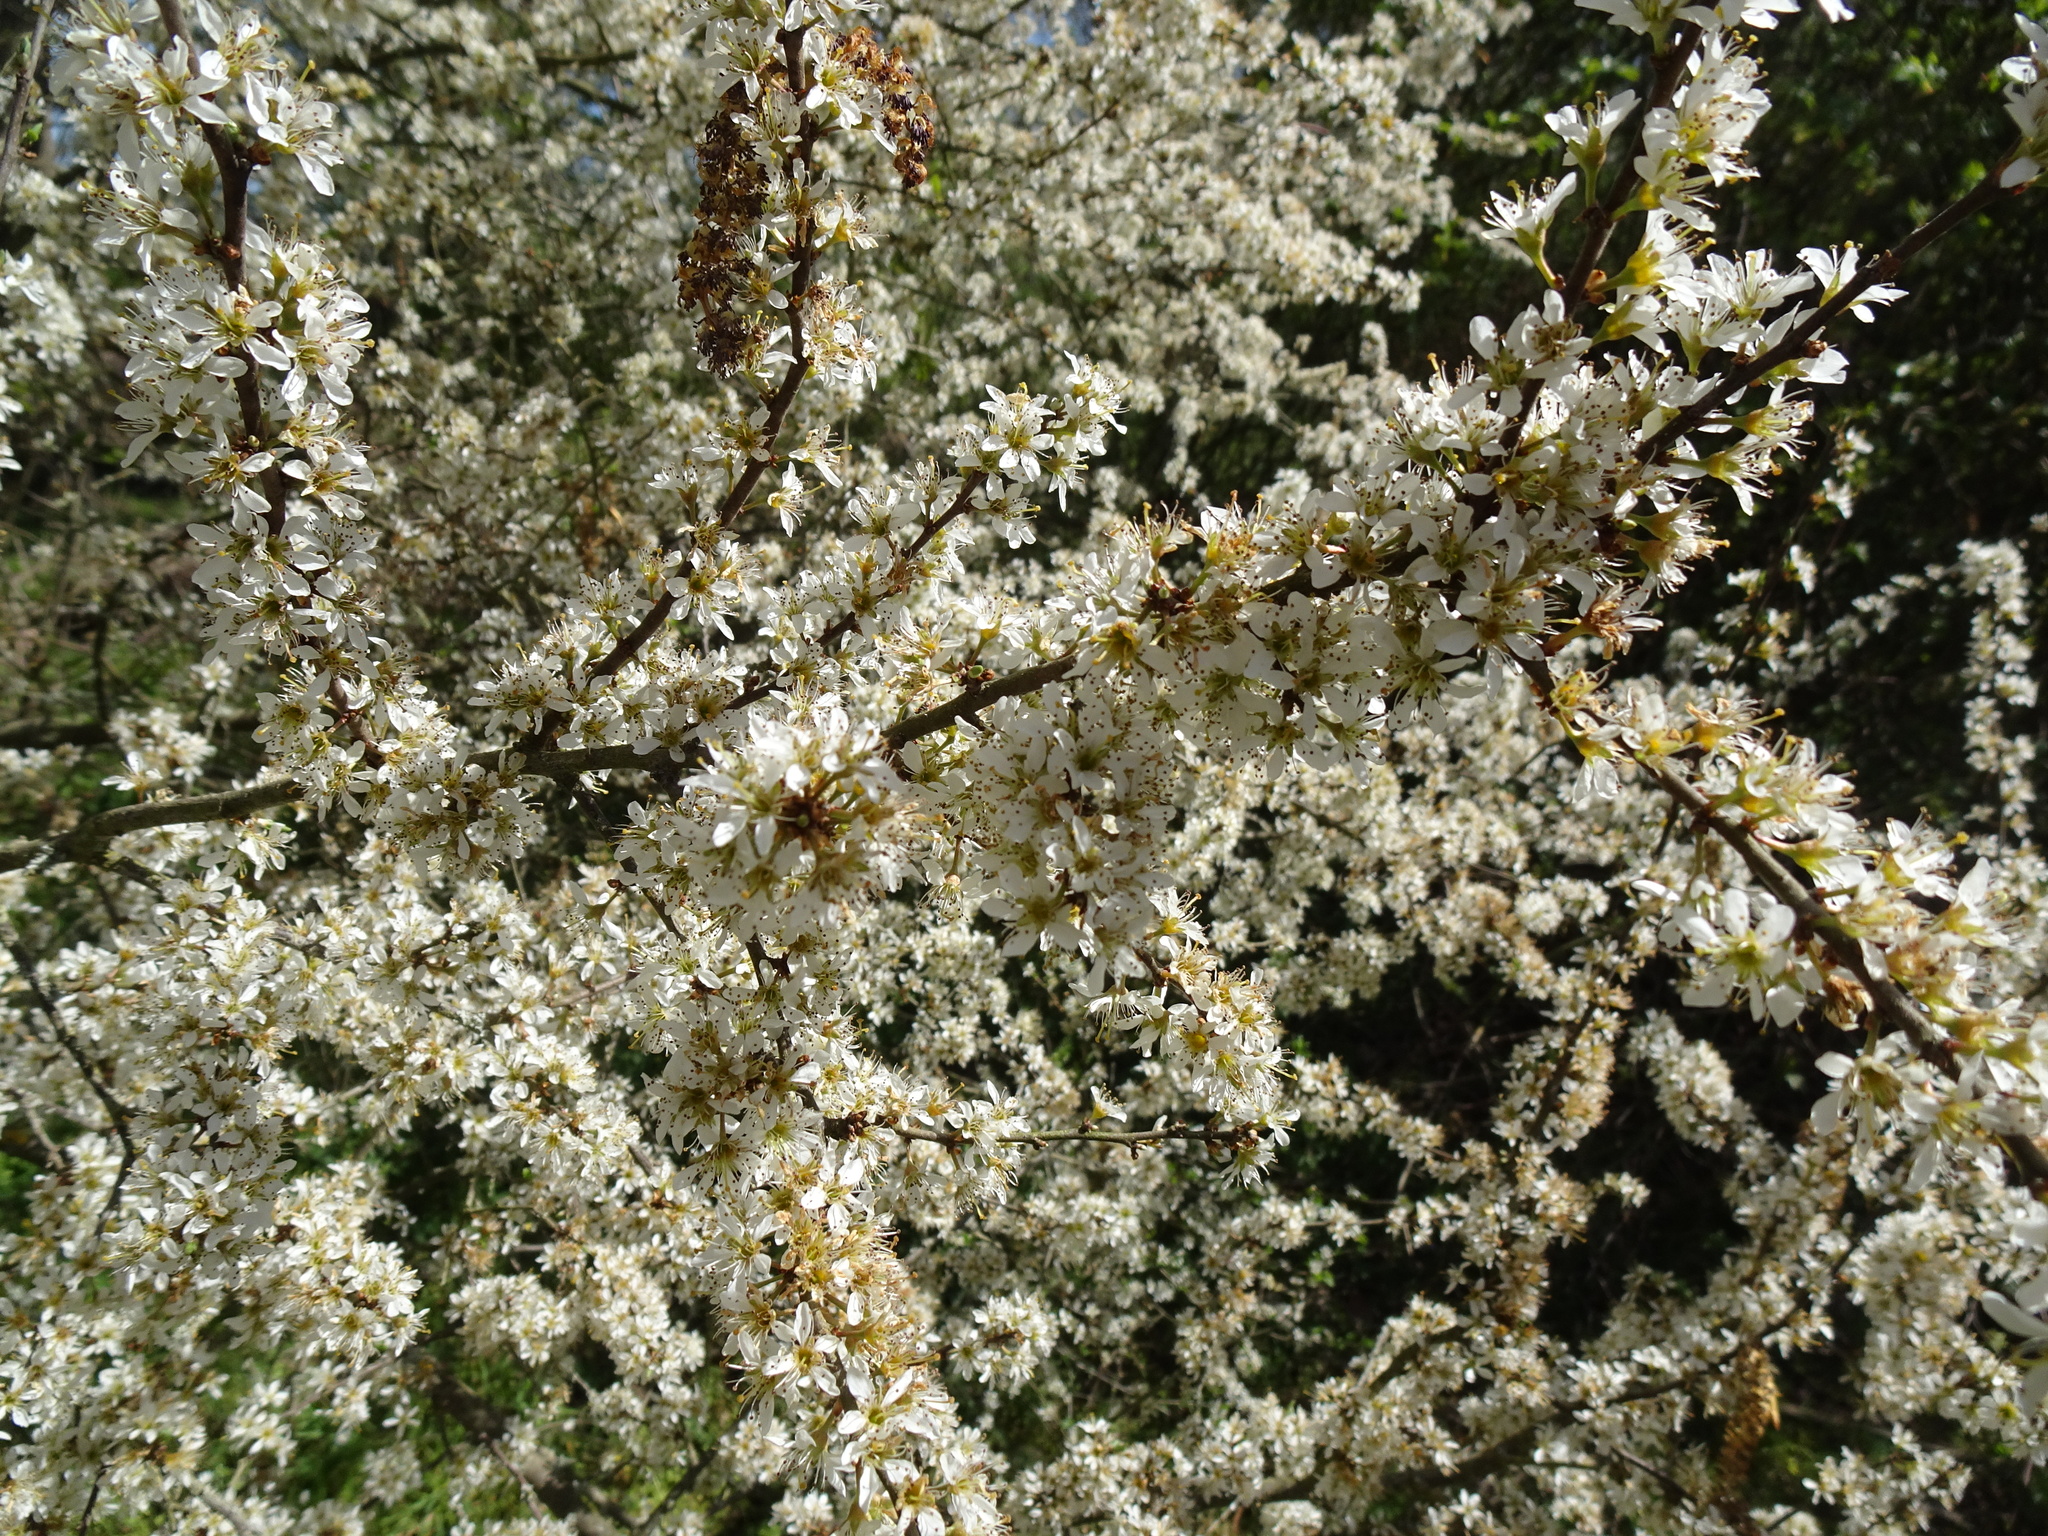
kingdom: Plantae
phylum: Tracheophyta
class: Magnoliopsida
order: Rosales
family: Rosaceae
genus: Prunus
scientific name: Prunus spinosa
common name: Blackthorn
